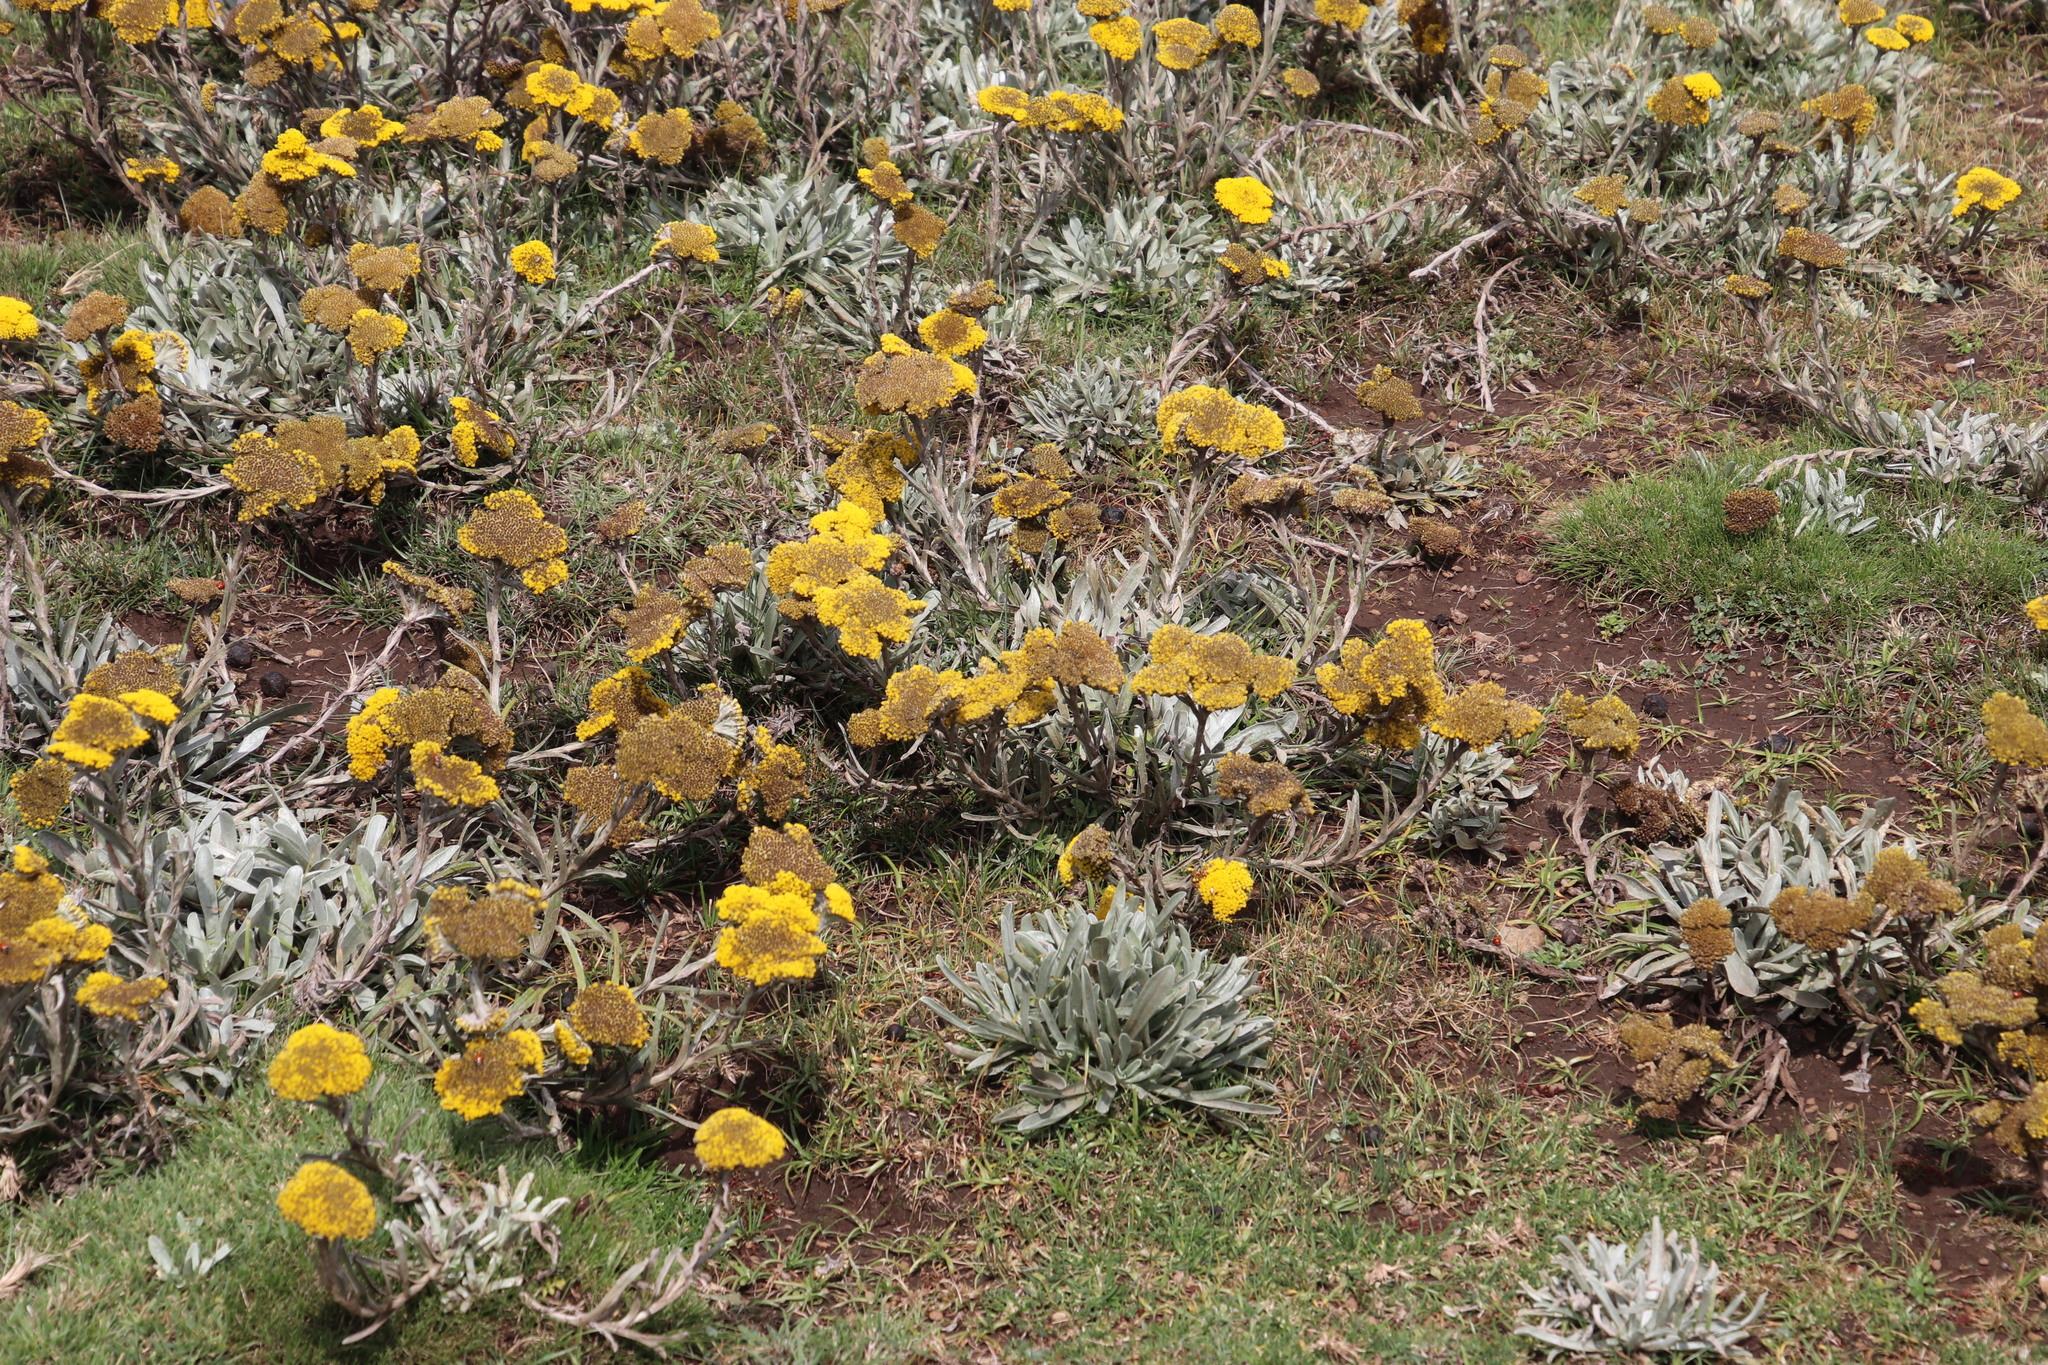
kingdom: Plantae
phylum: Tracheophyta
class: Magnoliopsida
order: Asterales
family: Asteraceae
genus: Helichrysum
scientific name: Helichrysum subglomeratum
